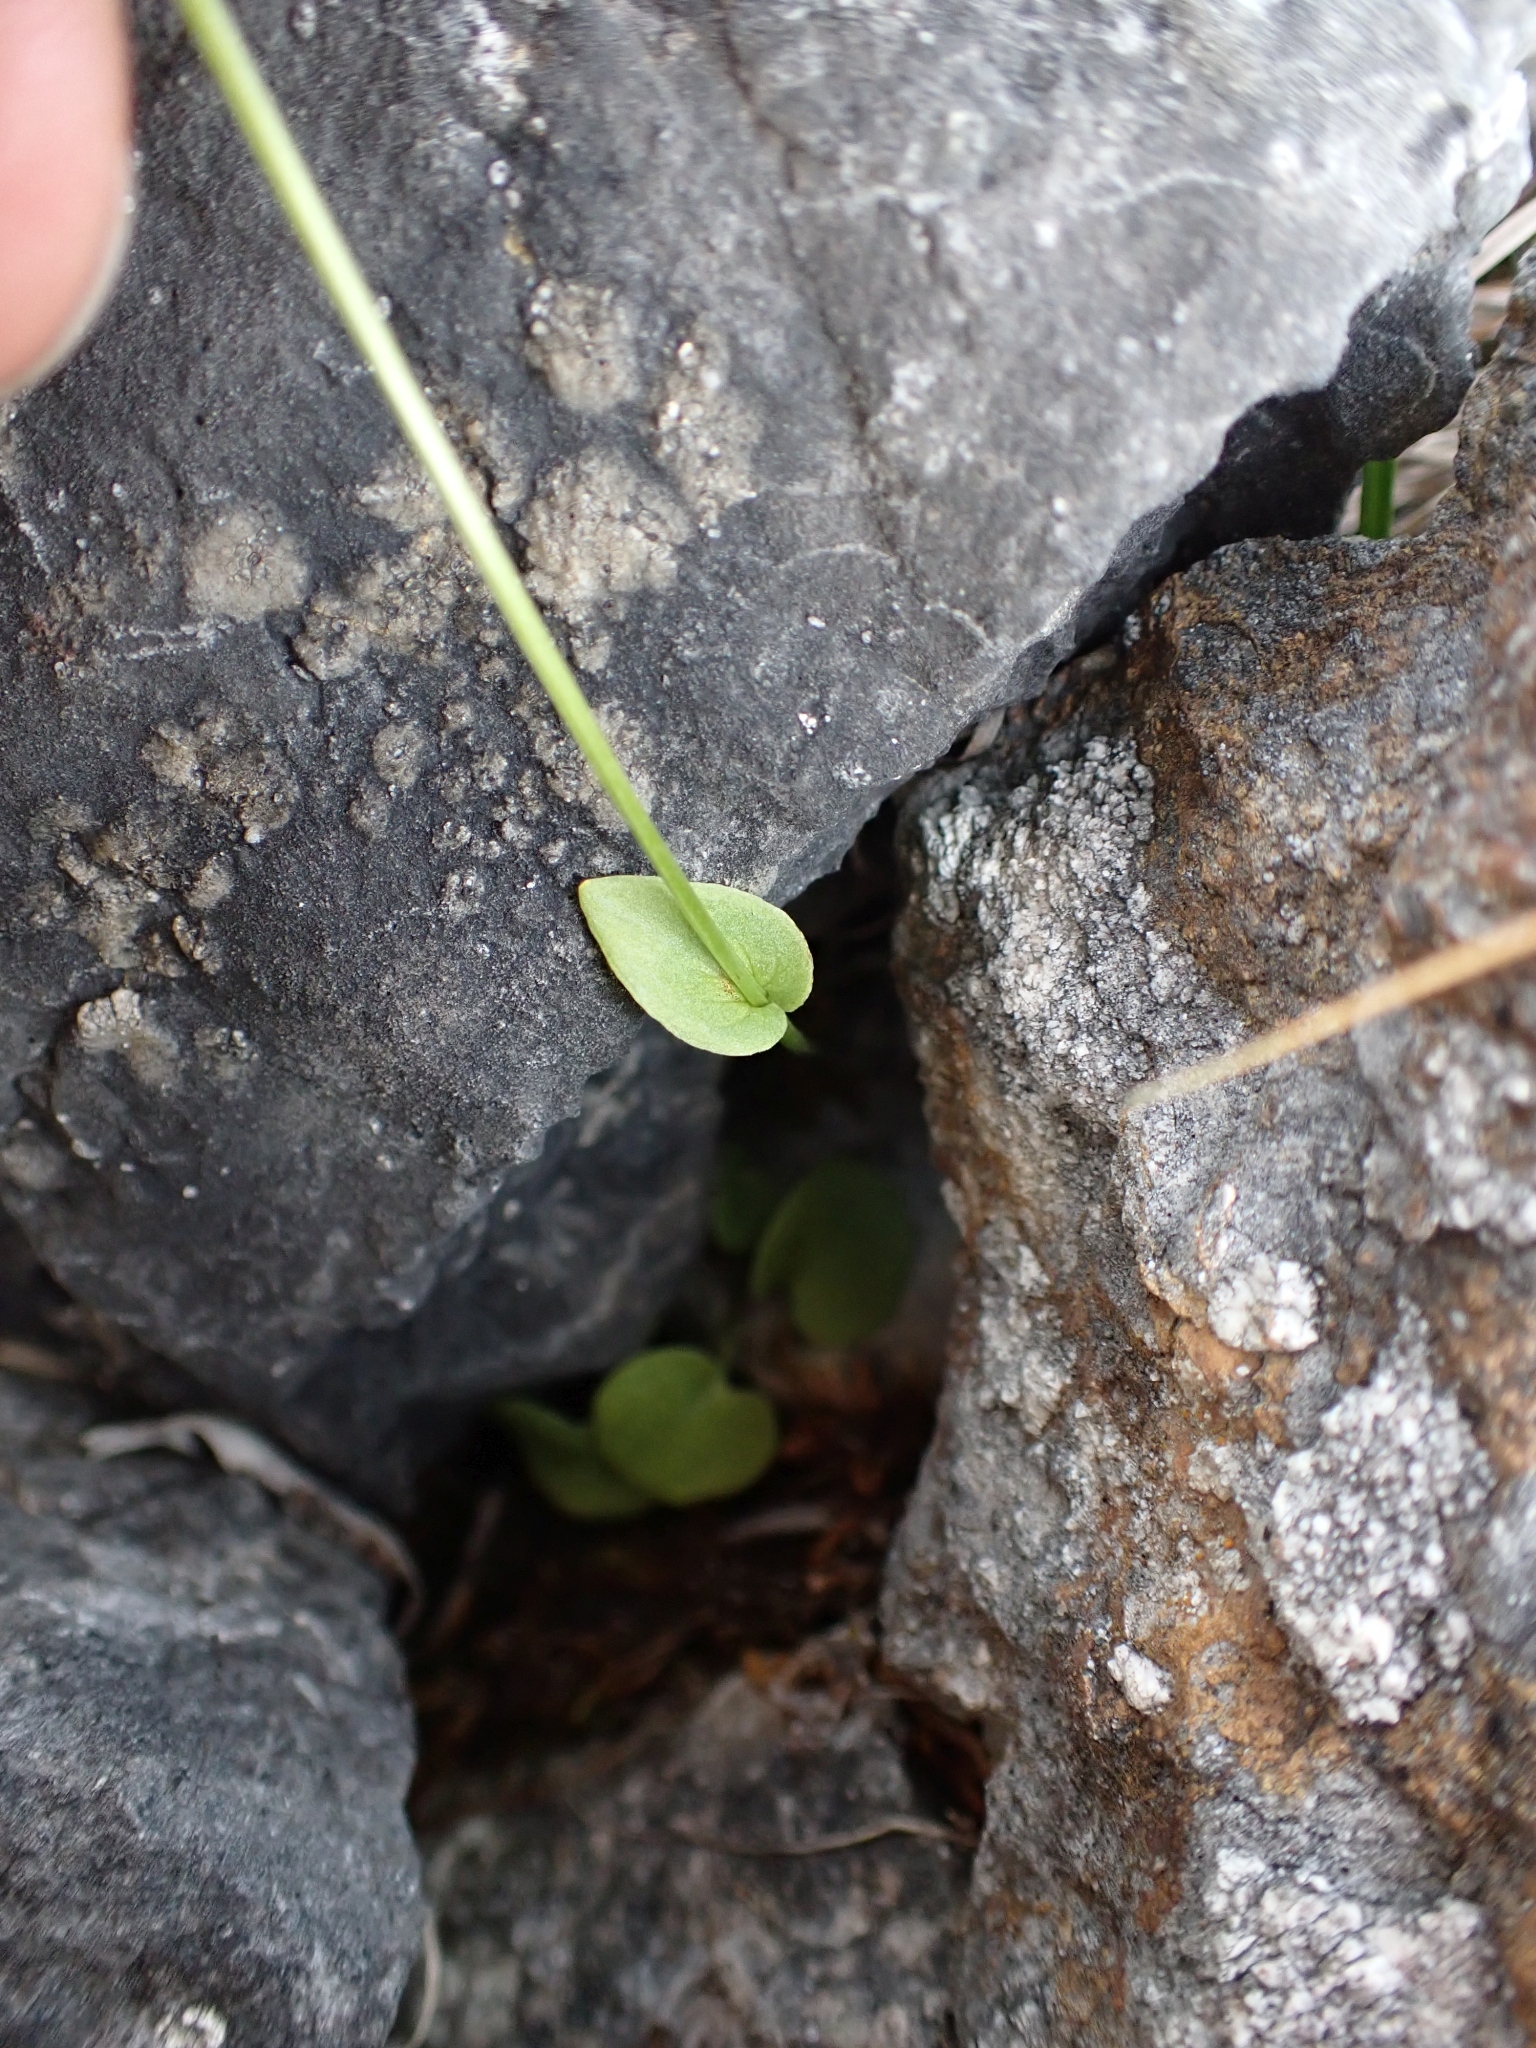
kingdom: Plantae
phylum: Tracheophyta
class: Magnoliopsida
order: Celastrales
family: Parnassiaceae
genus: Parnassia
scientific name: Parnassia palustris
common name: Grass-of-parnassus
